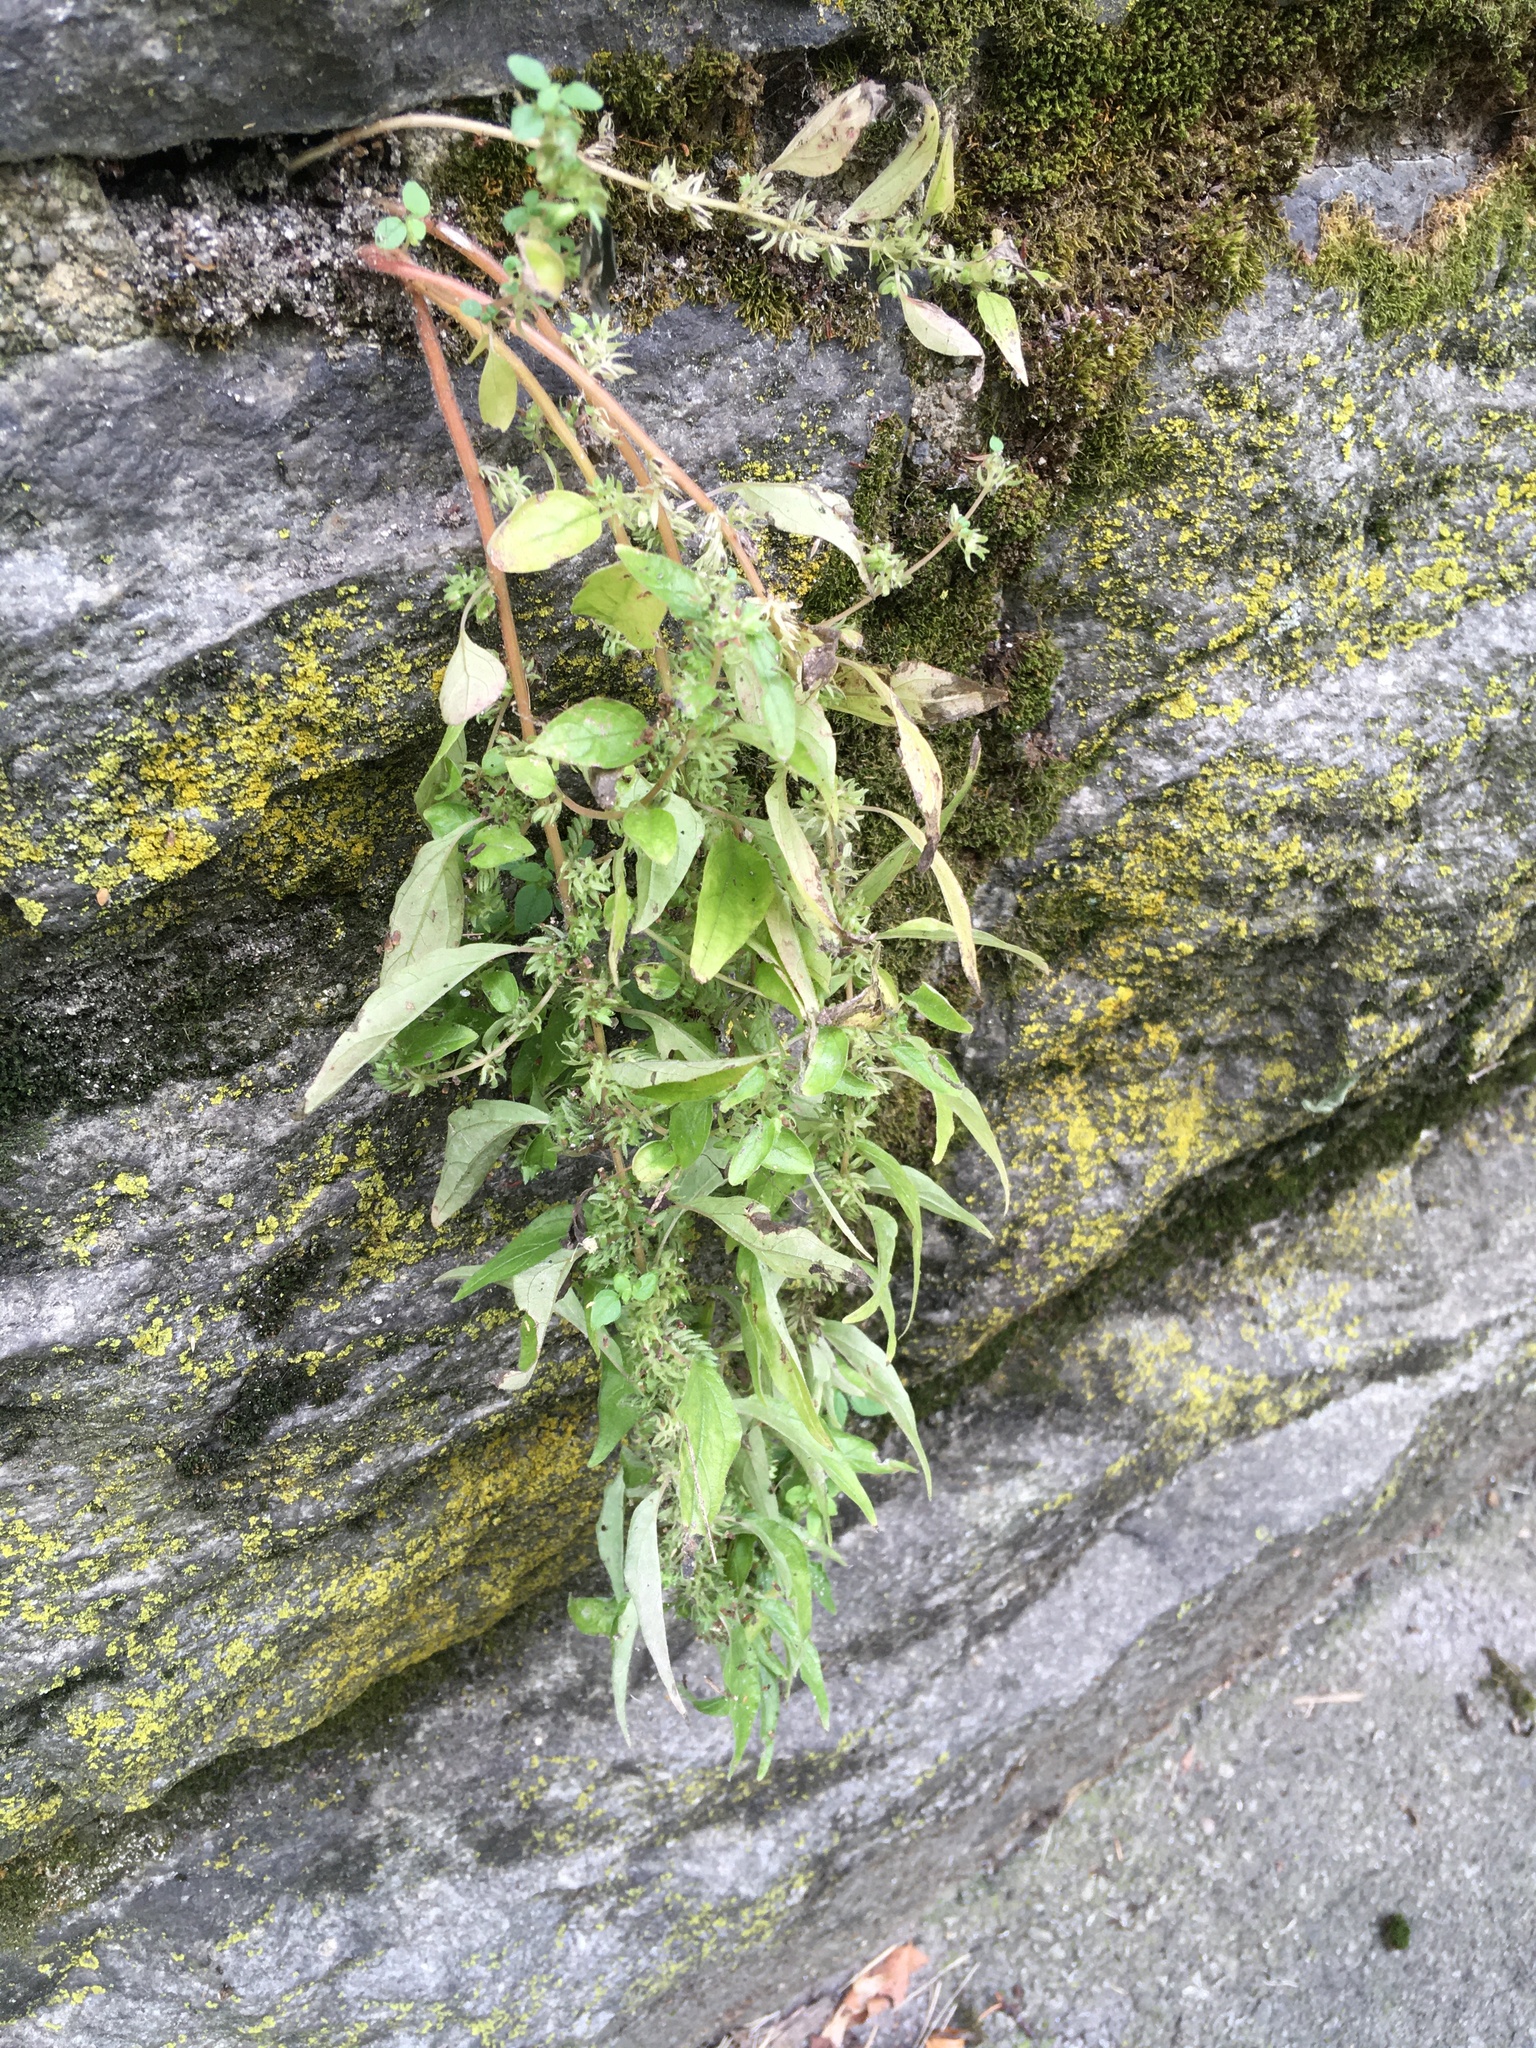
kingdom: Plantae
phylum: Tracheophyta
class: Magnoliopsida
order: Rosales
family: Urticaceae
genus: Parietaria
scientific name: Parietaria pensylvanica
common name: Pennsylvania pellitory
